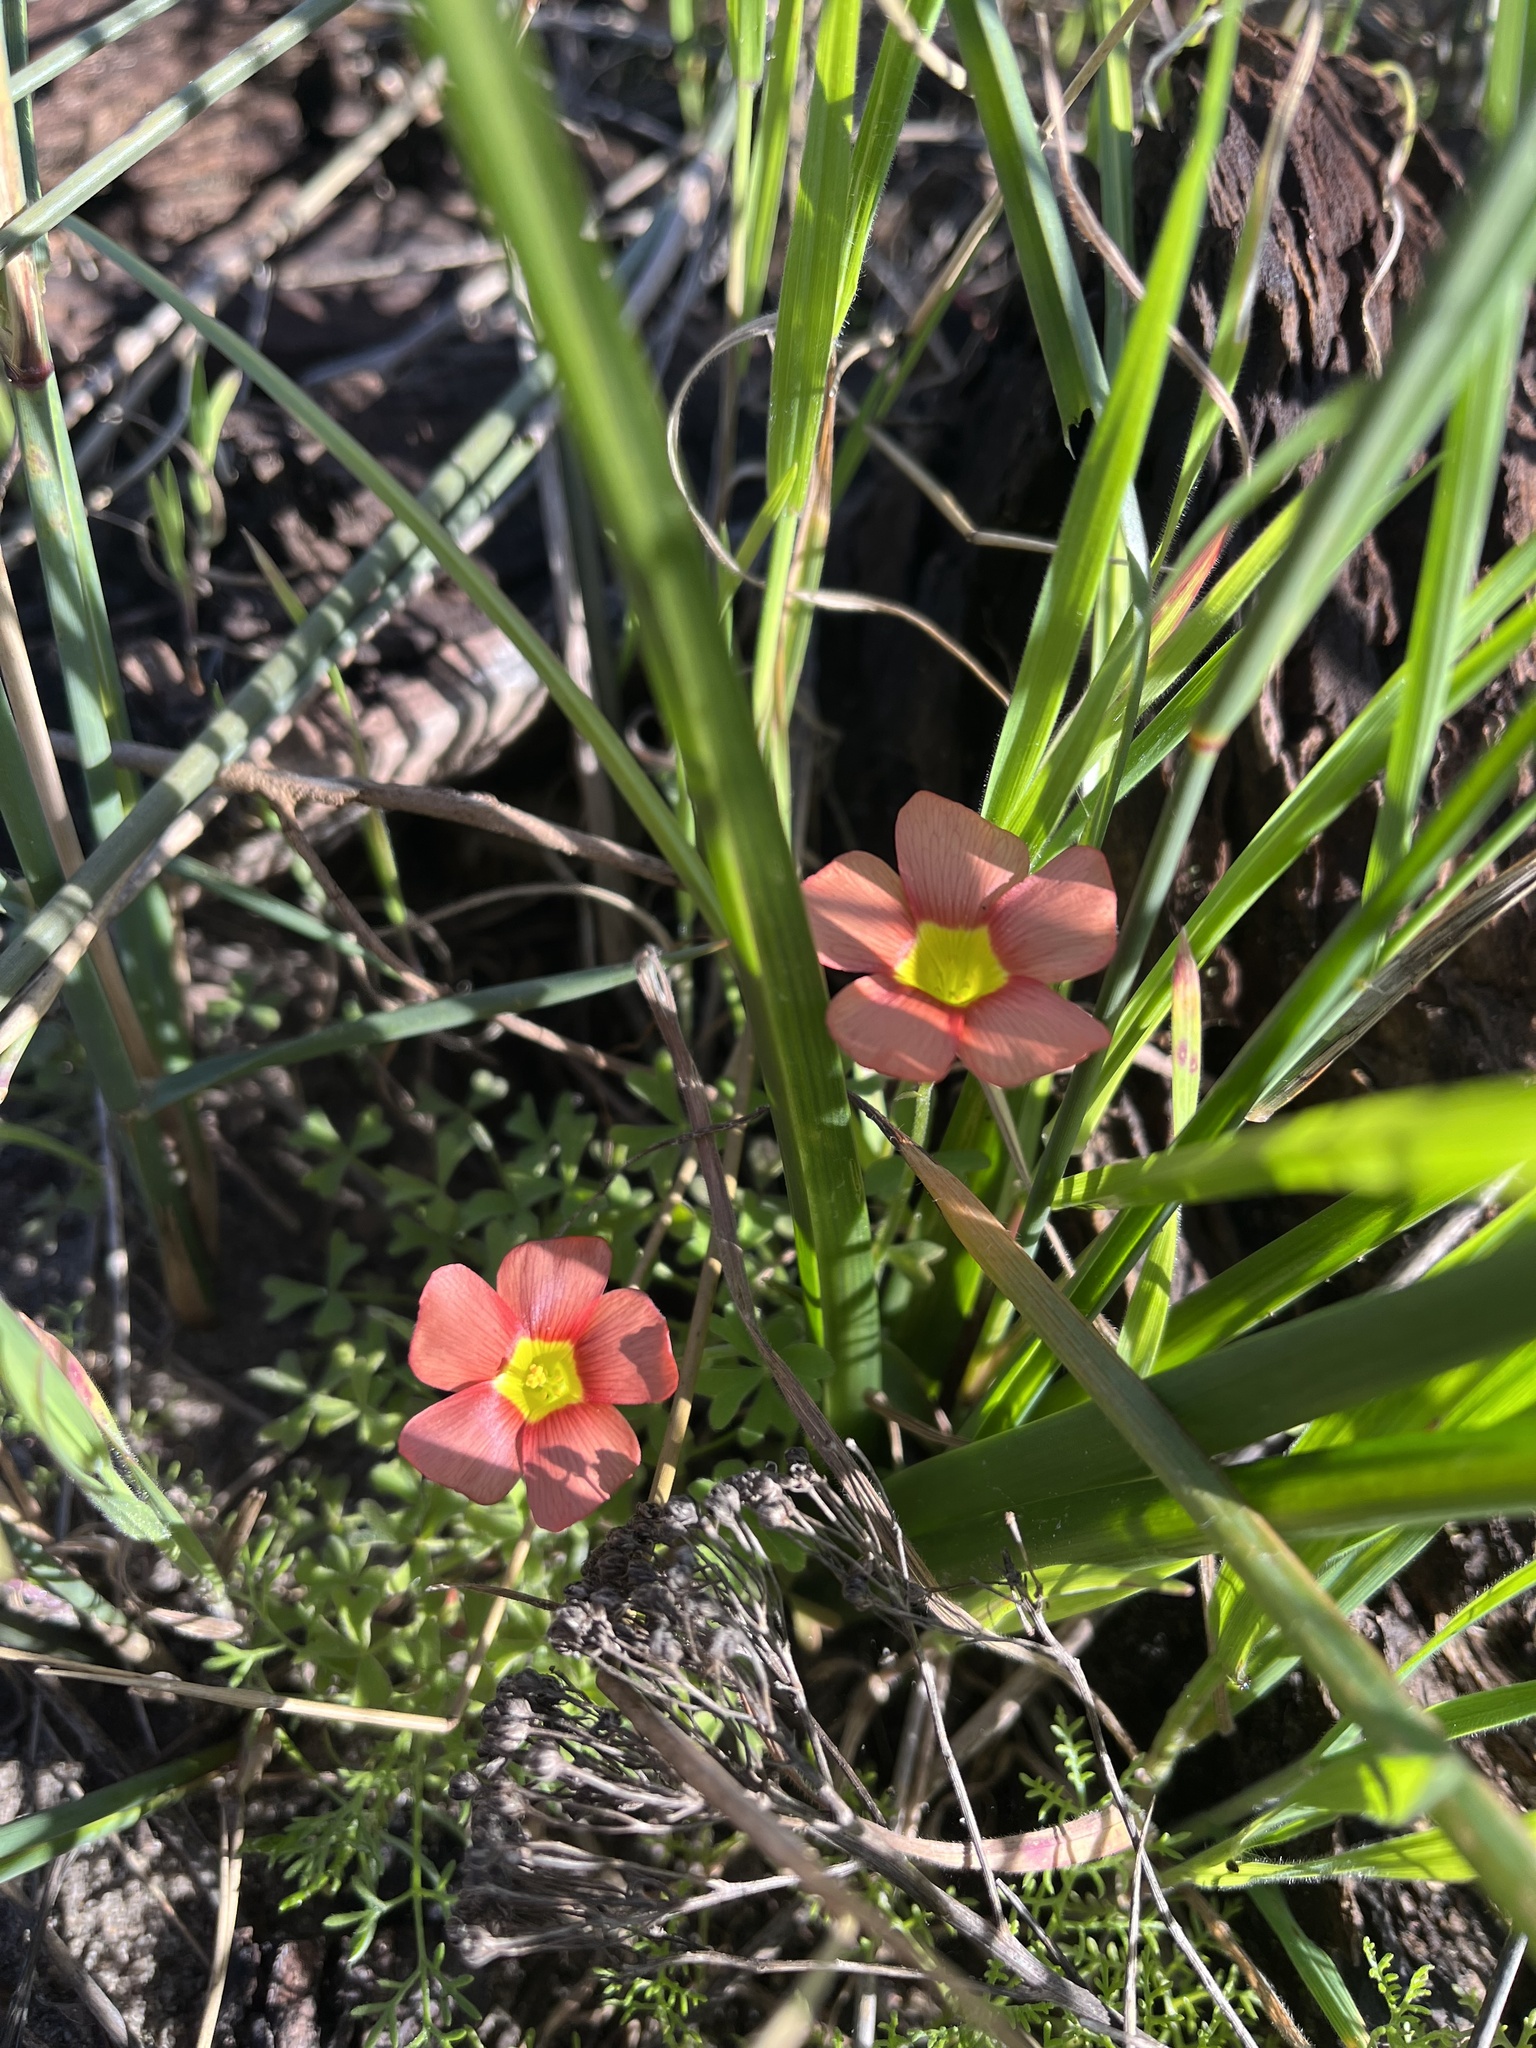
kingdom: Plantae
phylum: Tracheophyta
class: Magnoliopsida
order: Oxalidales
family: Oxalidaceae
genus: Oxalis
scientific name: Oxalis obtusa
